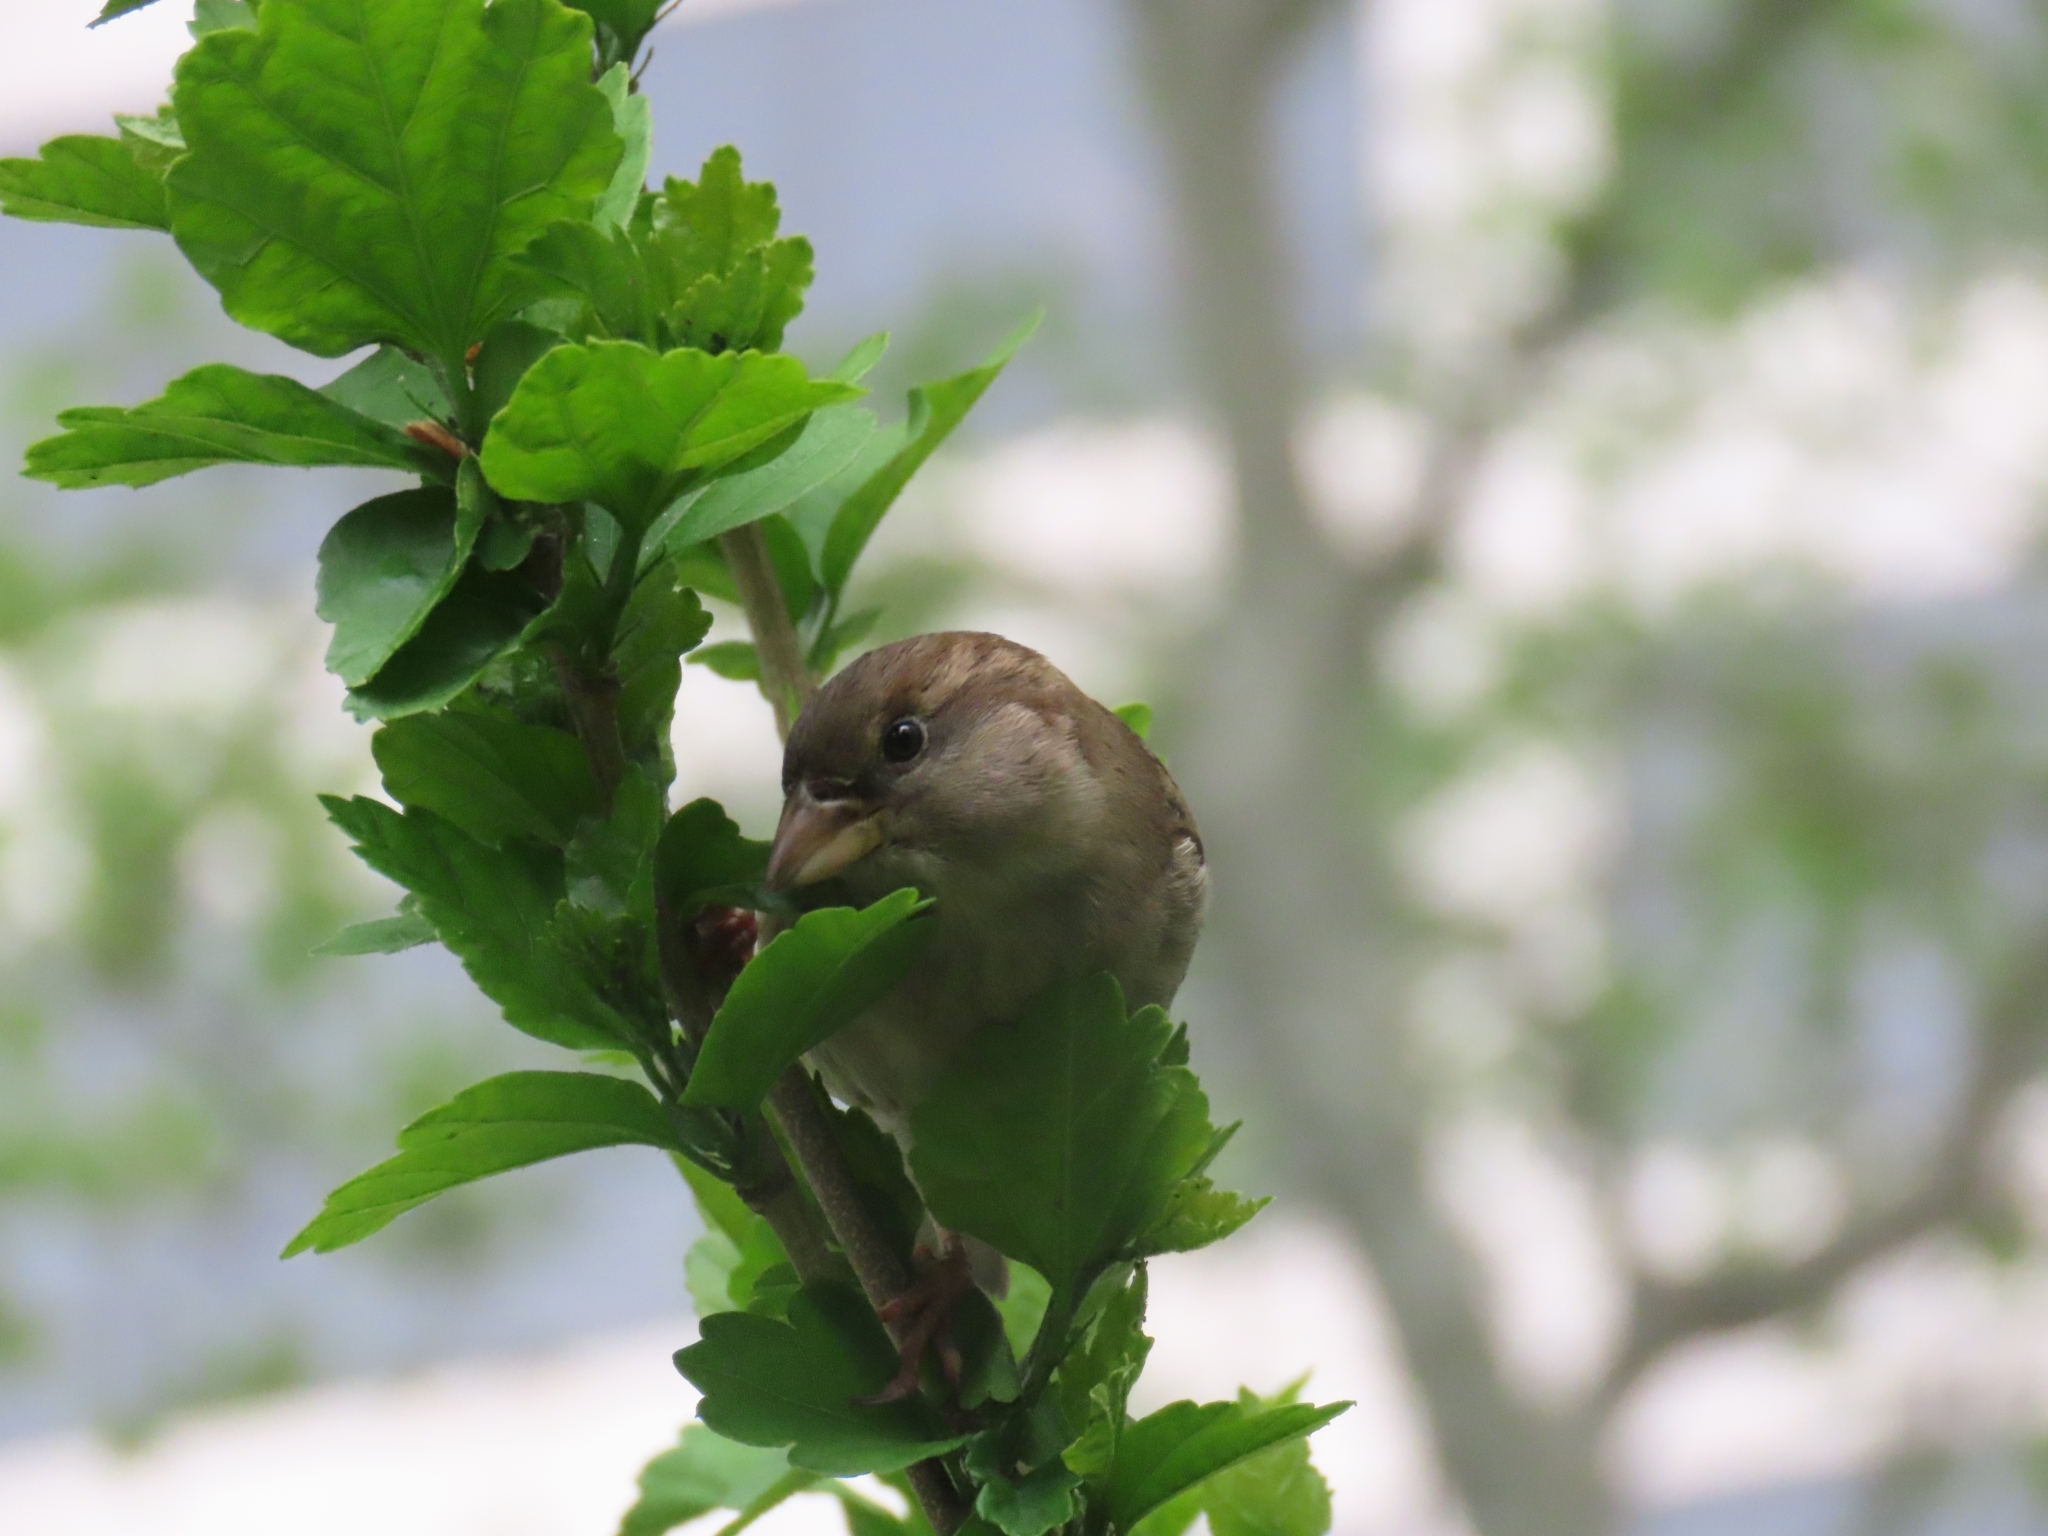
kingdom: Animalia
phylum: Chordata
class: Aves
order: Passeriformes
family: Passeridae
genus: Passer
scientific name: Passer domesticus
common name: House sparrow
